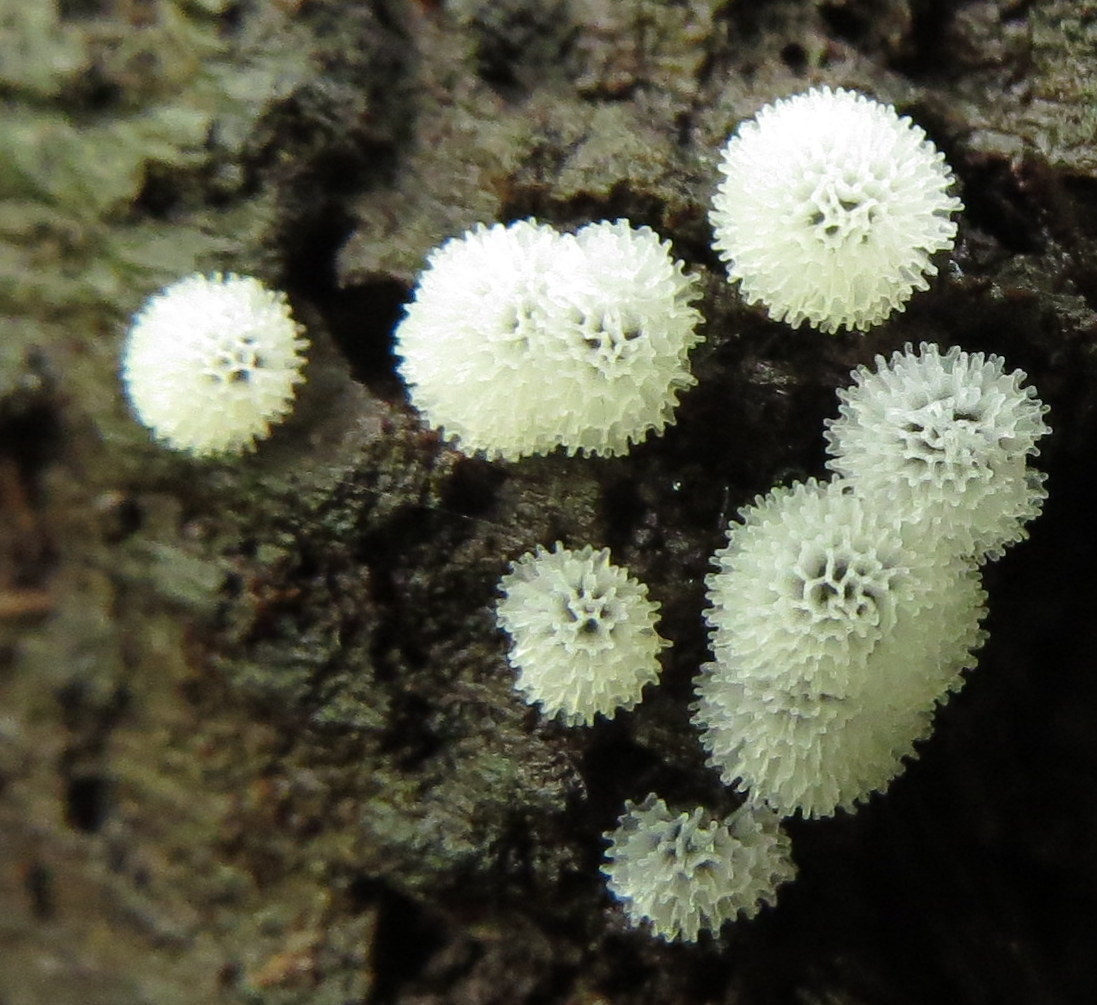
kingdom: Protozoa
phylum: Mycetozoa
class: Protosteliomycetes
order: Ceratiomyxales
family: Ceratiomyxaceae
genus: Ceratiomyxa
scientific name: Ceratiomyxa fruticulosa
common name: Honeycomb coral slime mold
